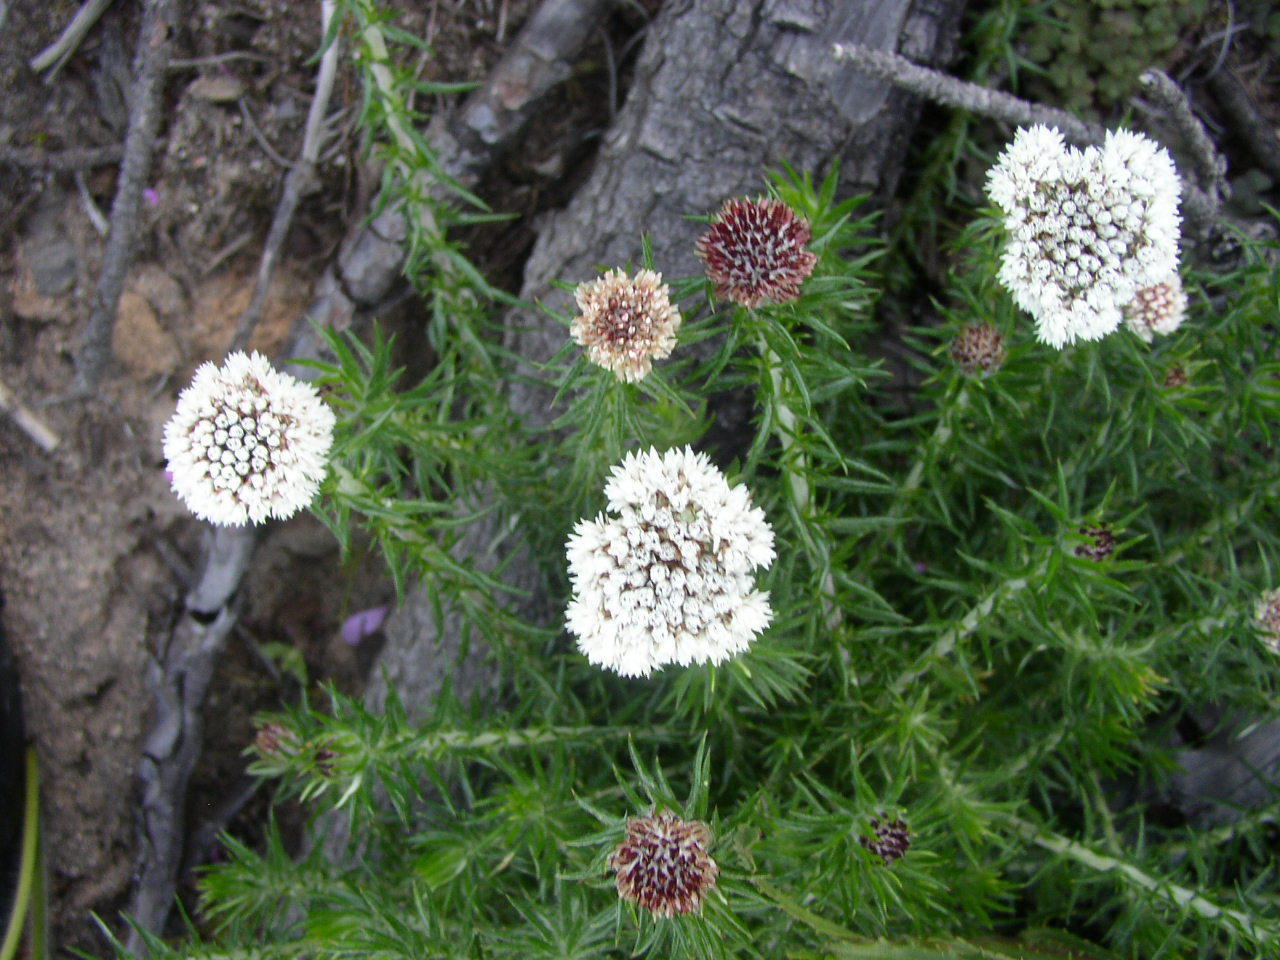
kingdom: Plantae
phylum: Tracheophyta
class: Magnoliopsida
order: Asterales
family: Asteraceae
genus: Metalasia
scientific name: Metalasia densa
